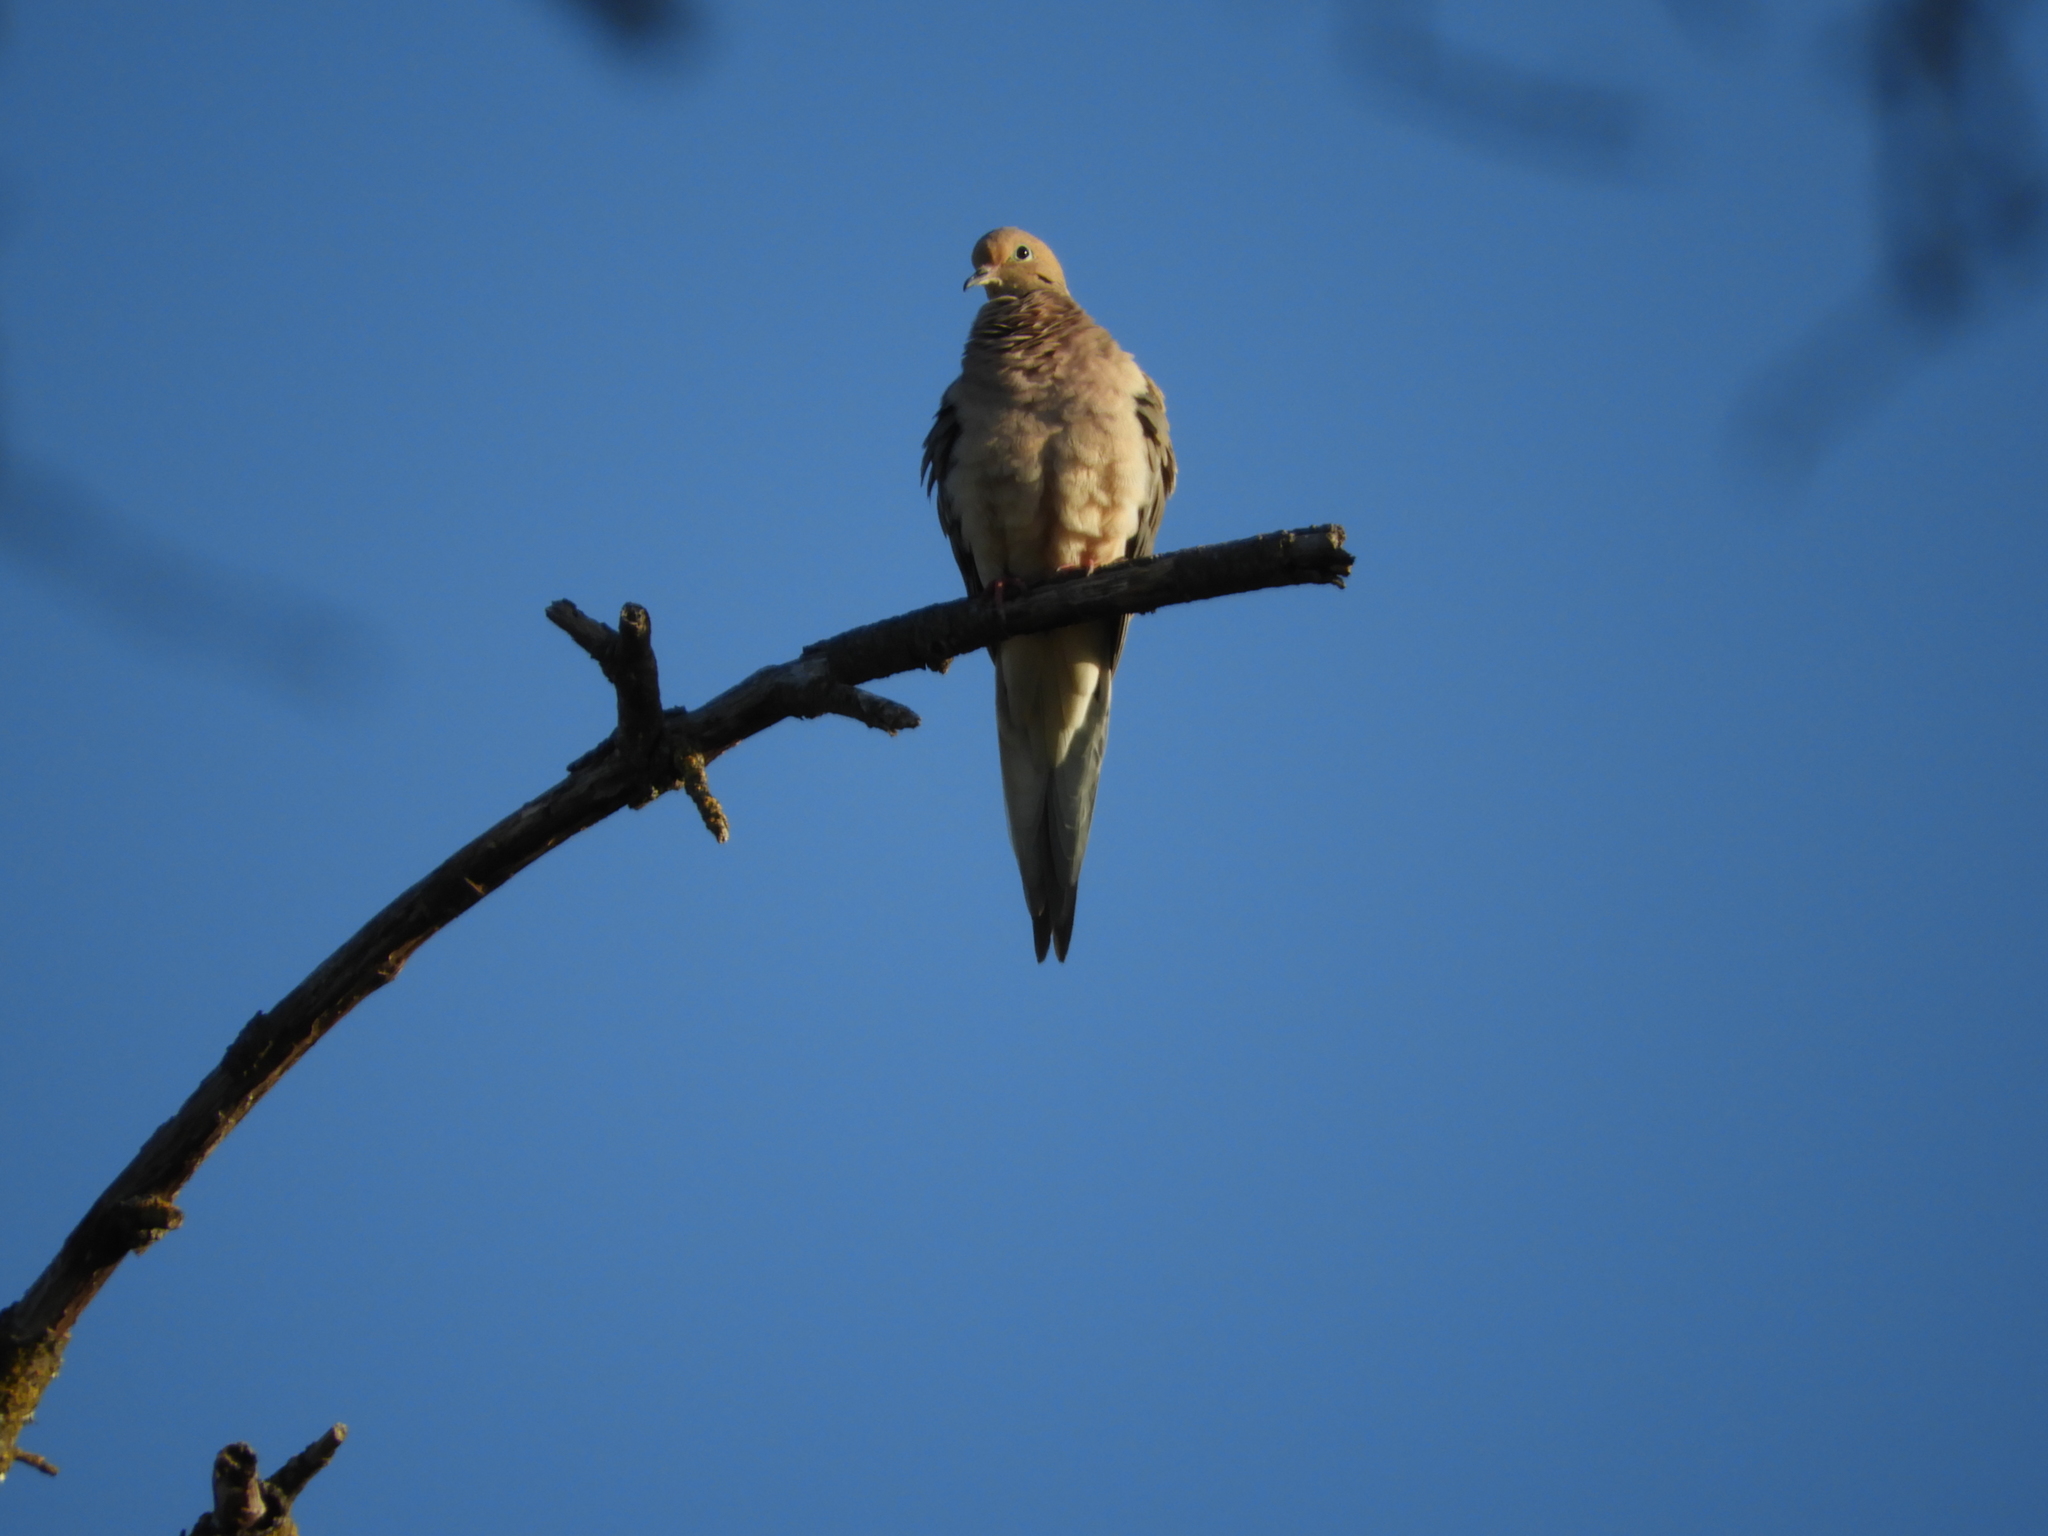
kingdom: Animalia
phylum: Chordata
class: Aves
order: Columbiformes
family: Columbidae
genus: Zenaida
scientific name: Zenaida macroura
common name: Mourning dove
